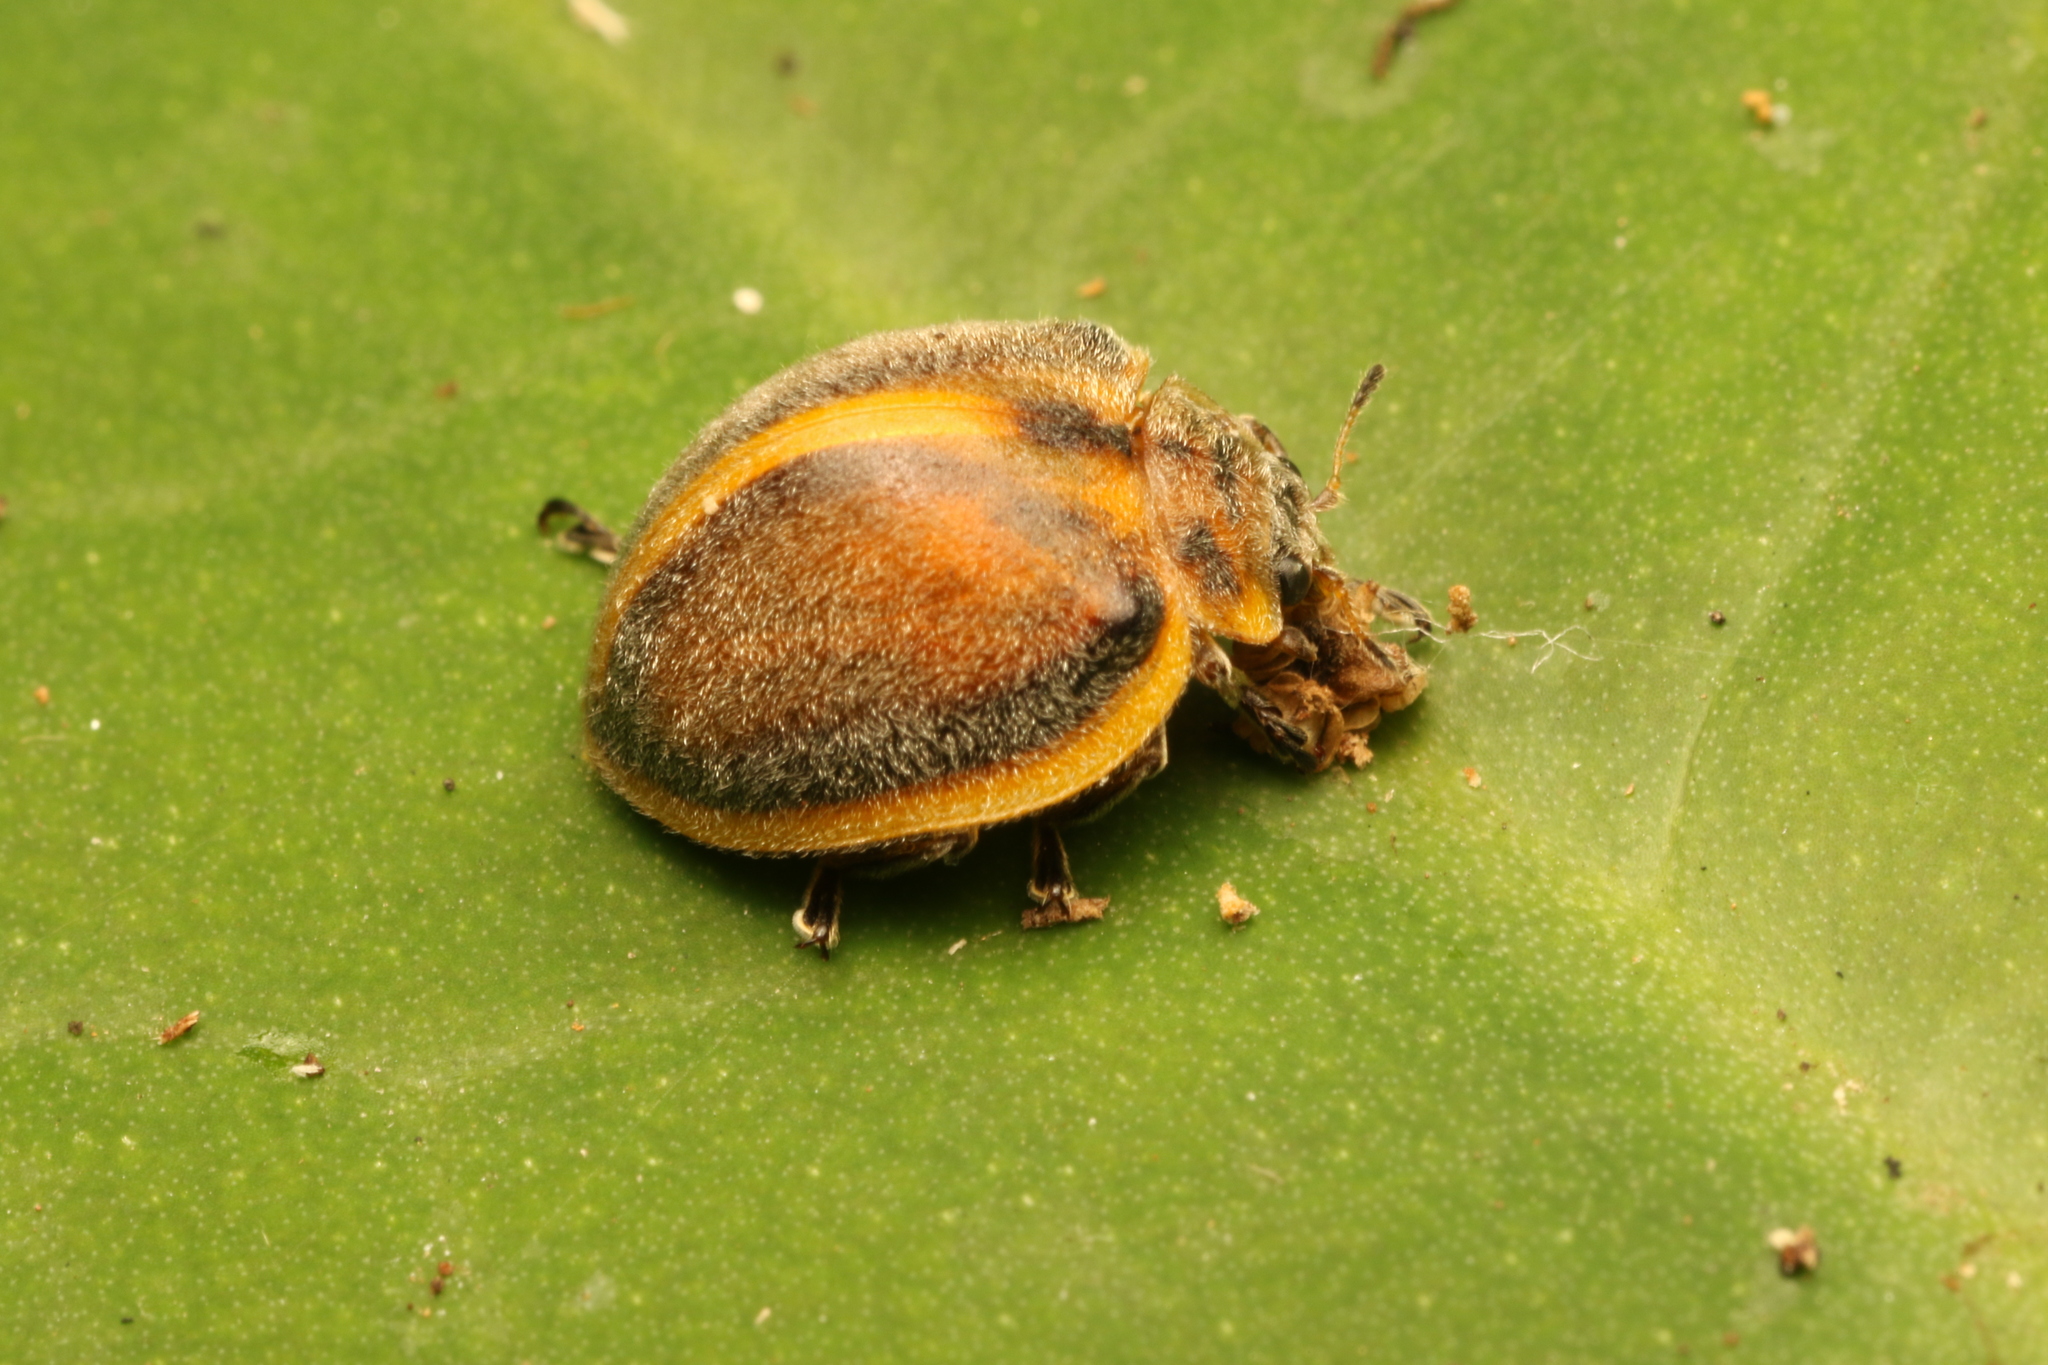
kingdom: Animalia
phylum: Arthropoda
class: Insecta
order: Coleoptera
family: Coccinellidae
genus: Epilachna
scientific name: Epilachna
